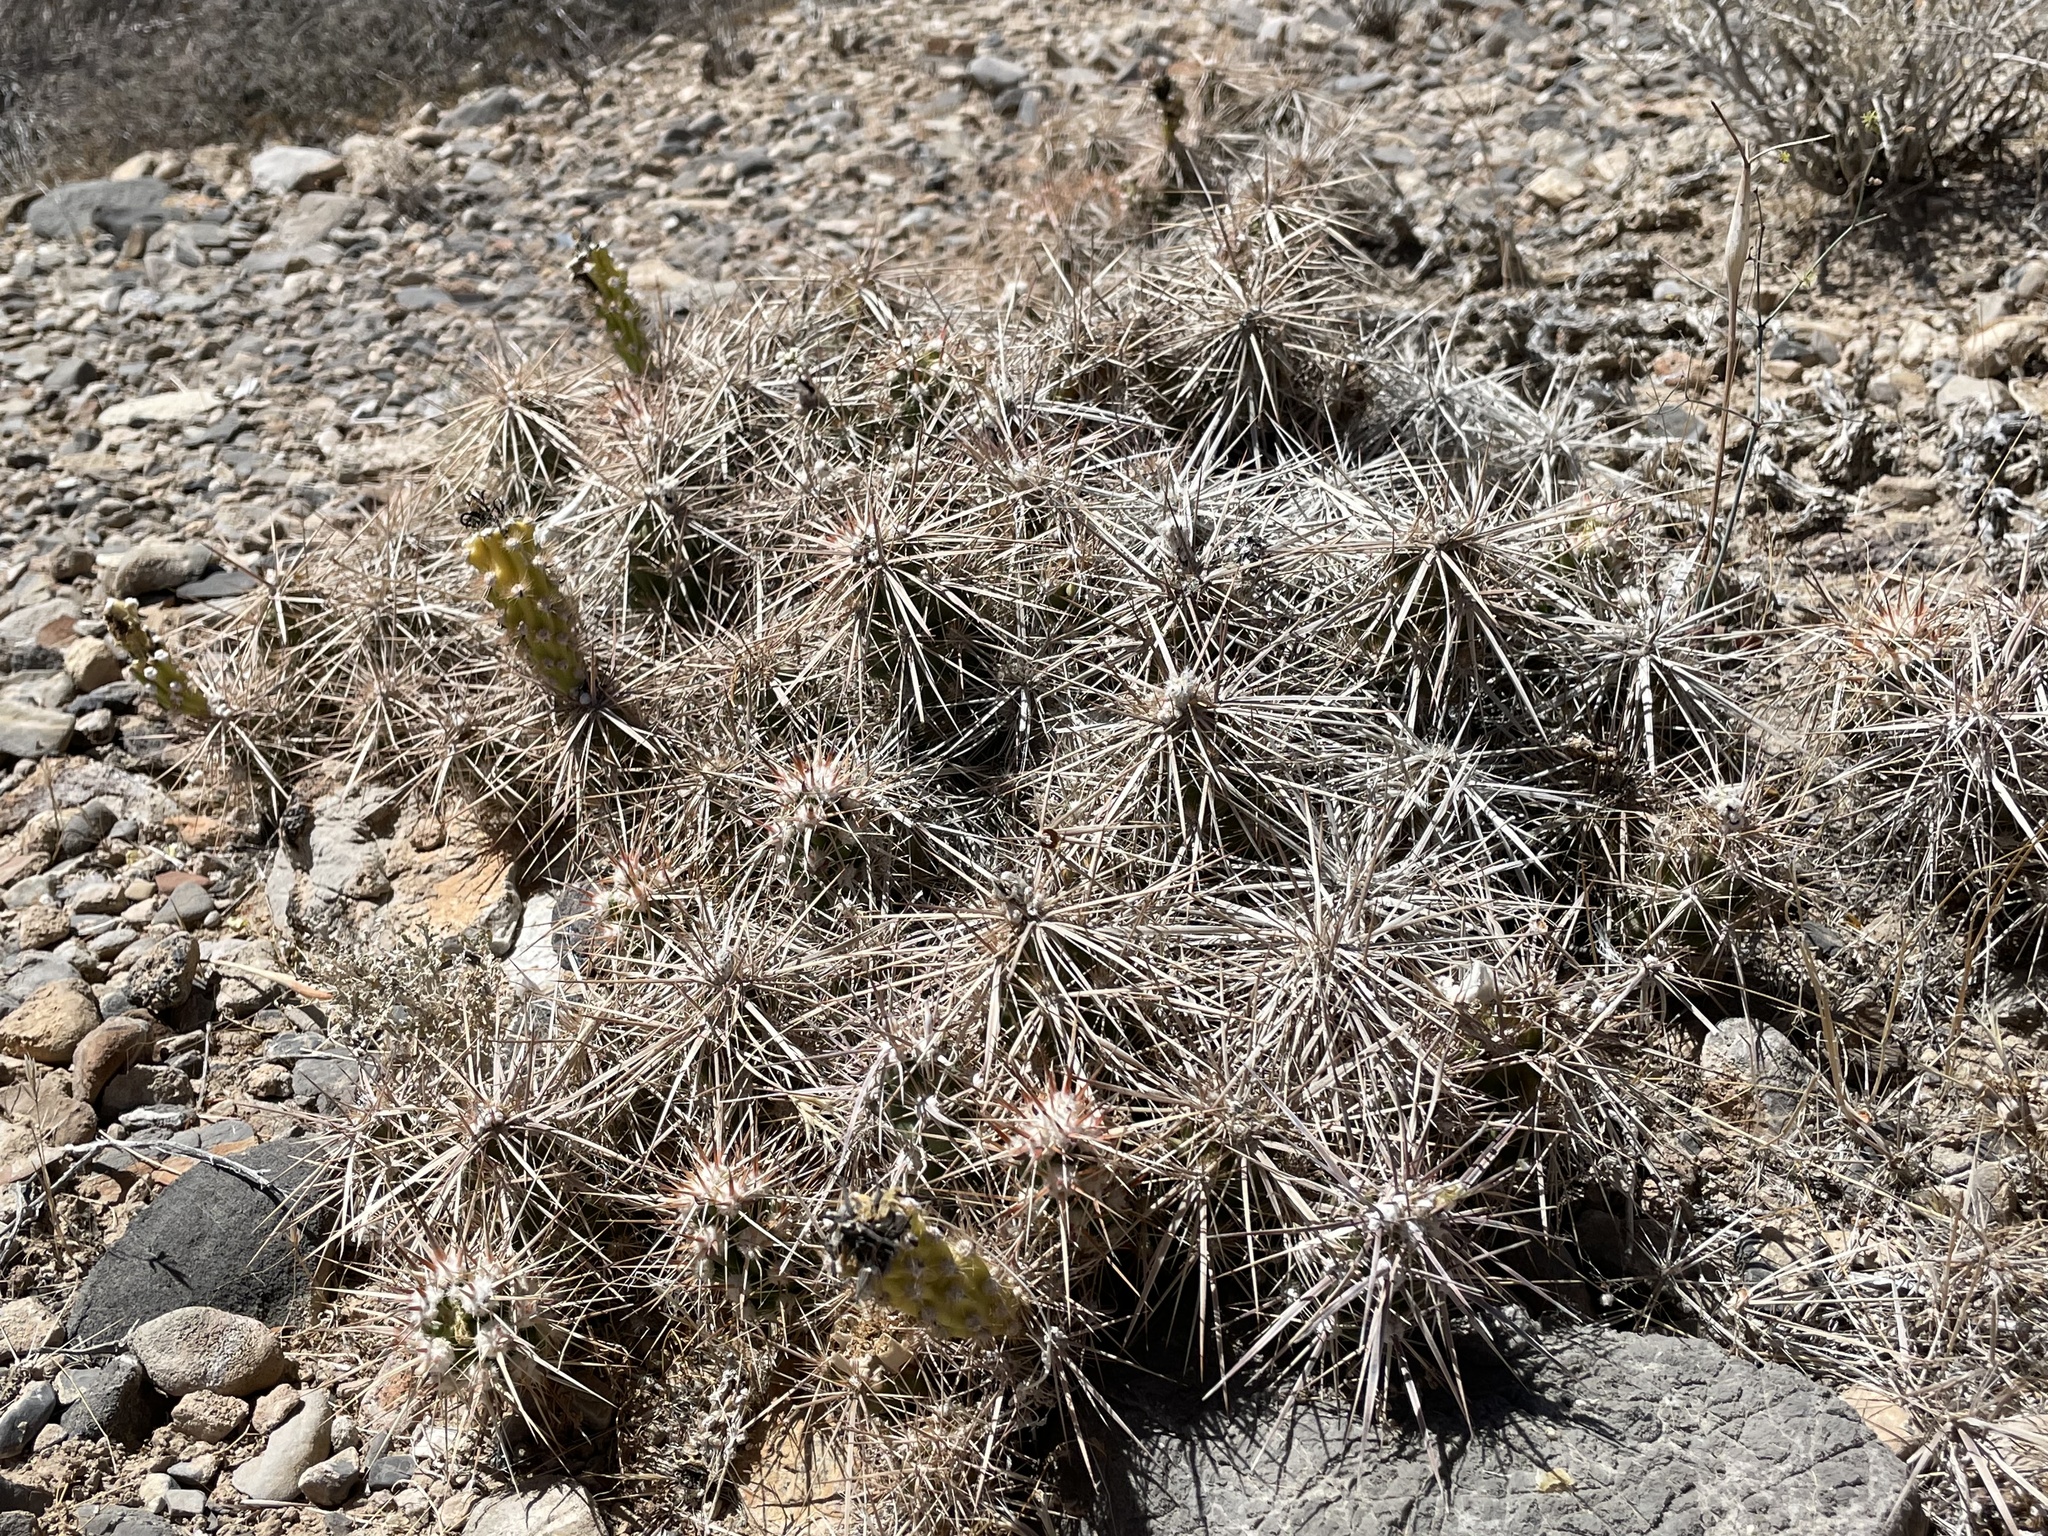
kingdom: Plantae
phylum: Tracheophyta
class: Magnoliopsida
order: Caryophyllales
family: Cactaceae
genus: Grusonia
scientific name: Grusonia parishiorum
